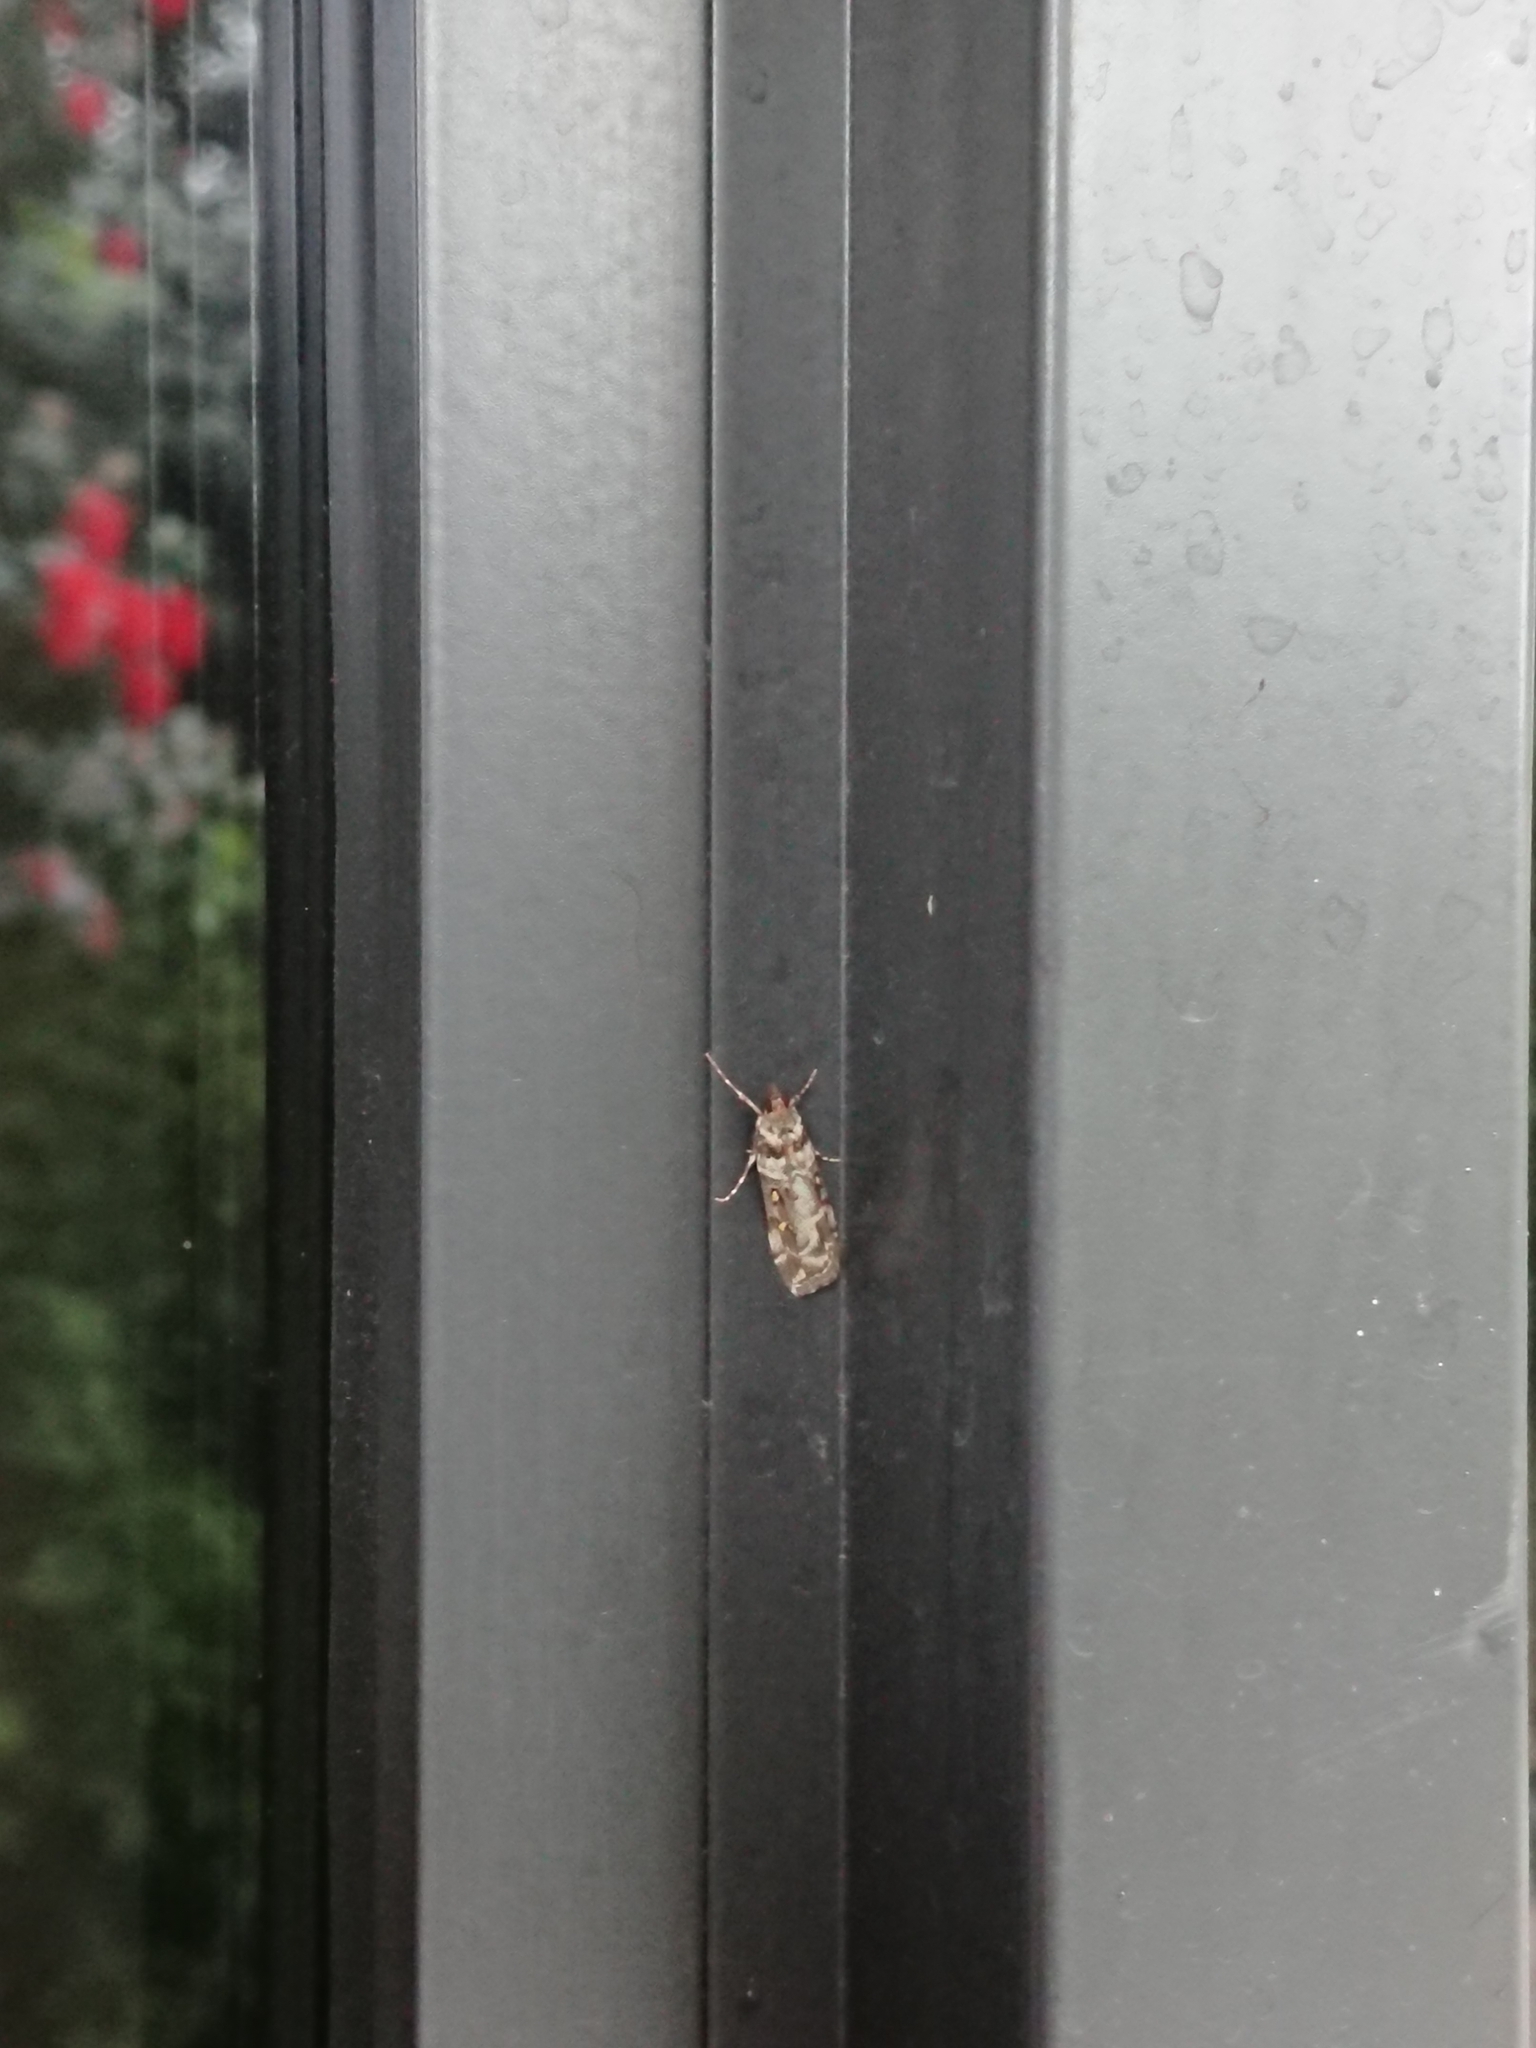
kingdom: Animalia
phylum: Arthropoda
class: Insecta
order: Lepidoptera
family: Crambidae
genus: Eudonia
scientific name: Eudonia diphtheralis
